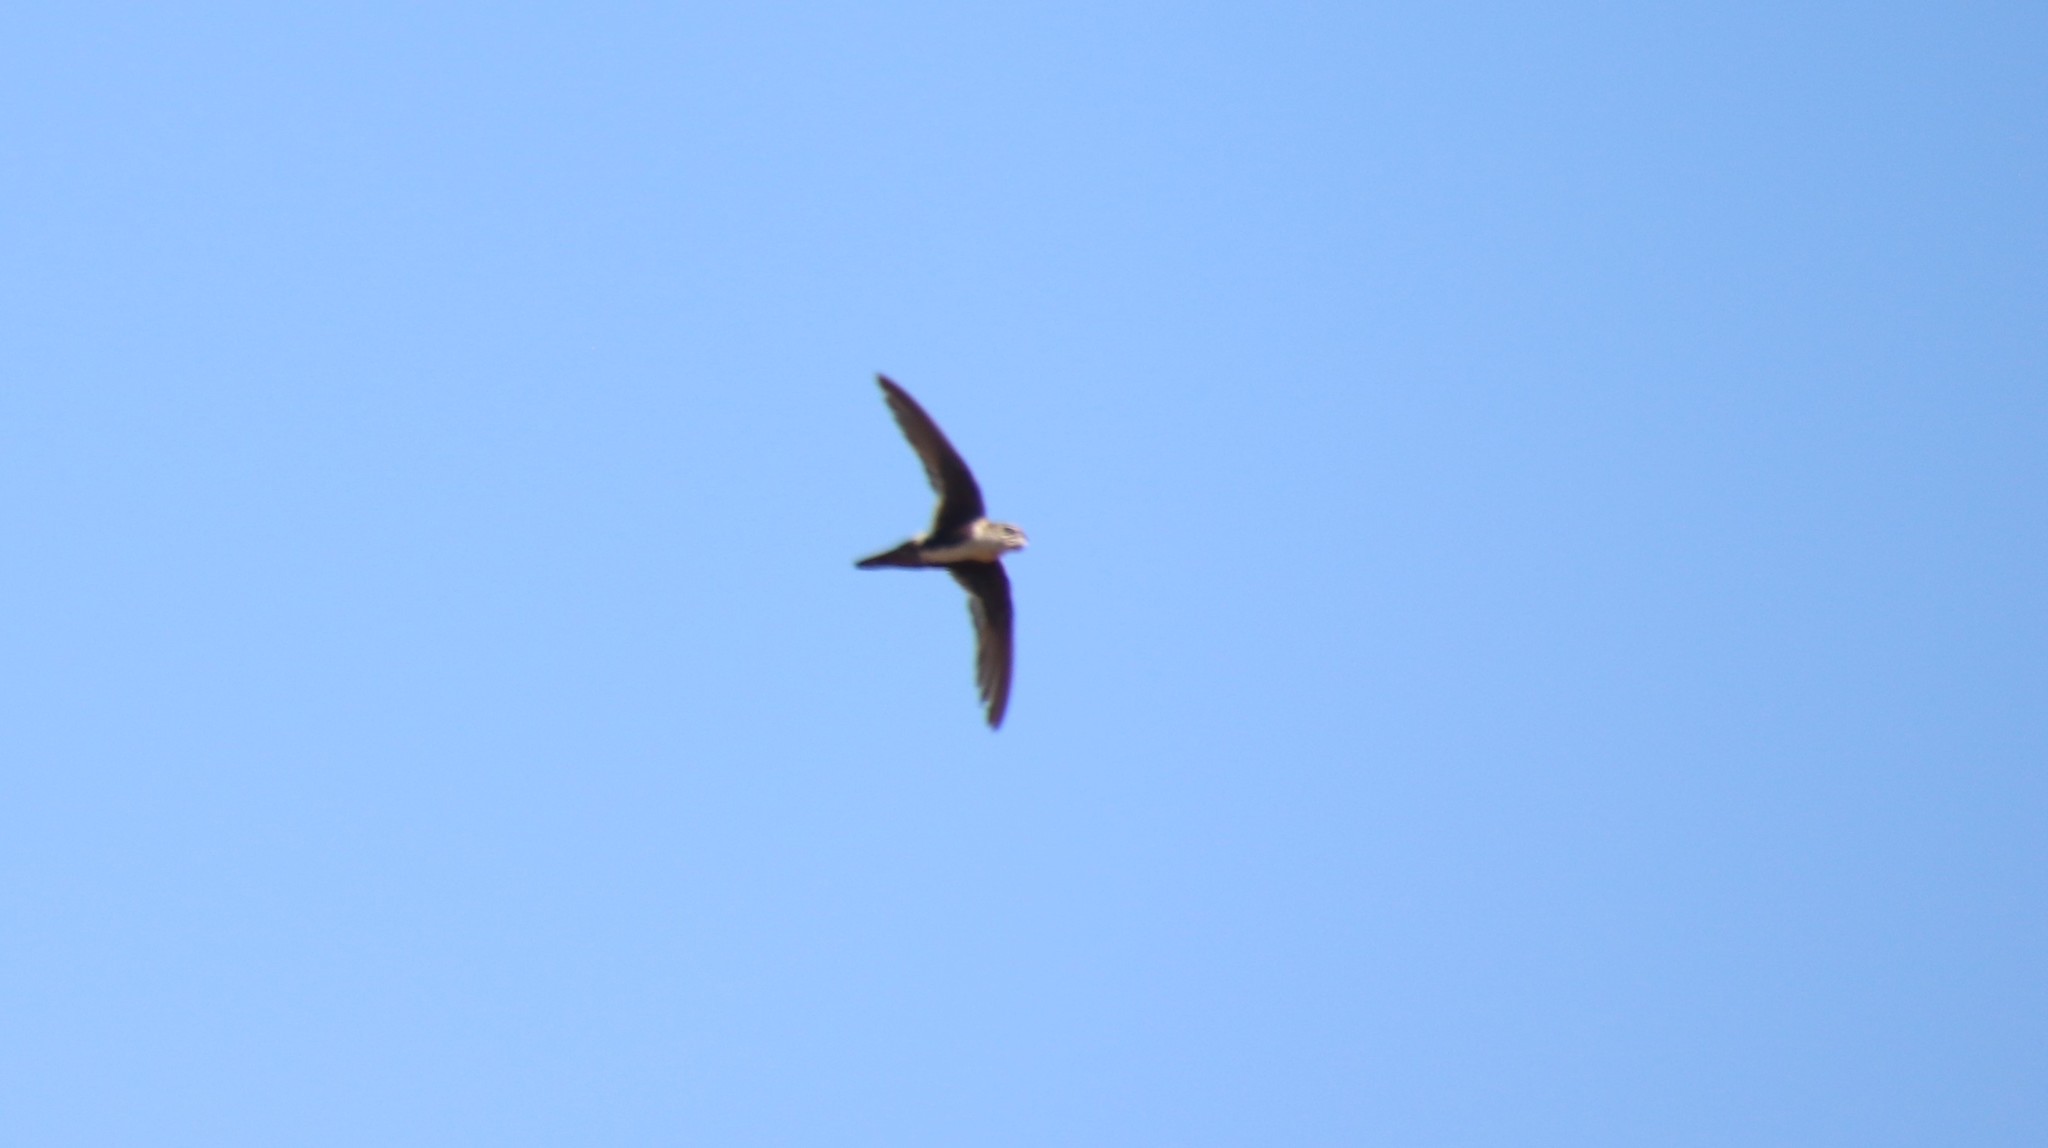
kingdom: Animalia
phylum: Chordata
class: Aves
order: Apodiformes
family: Apodidae
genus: Aeronautes
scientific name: Aeronautes saxatalis
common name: White-throated swift
